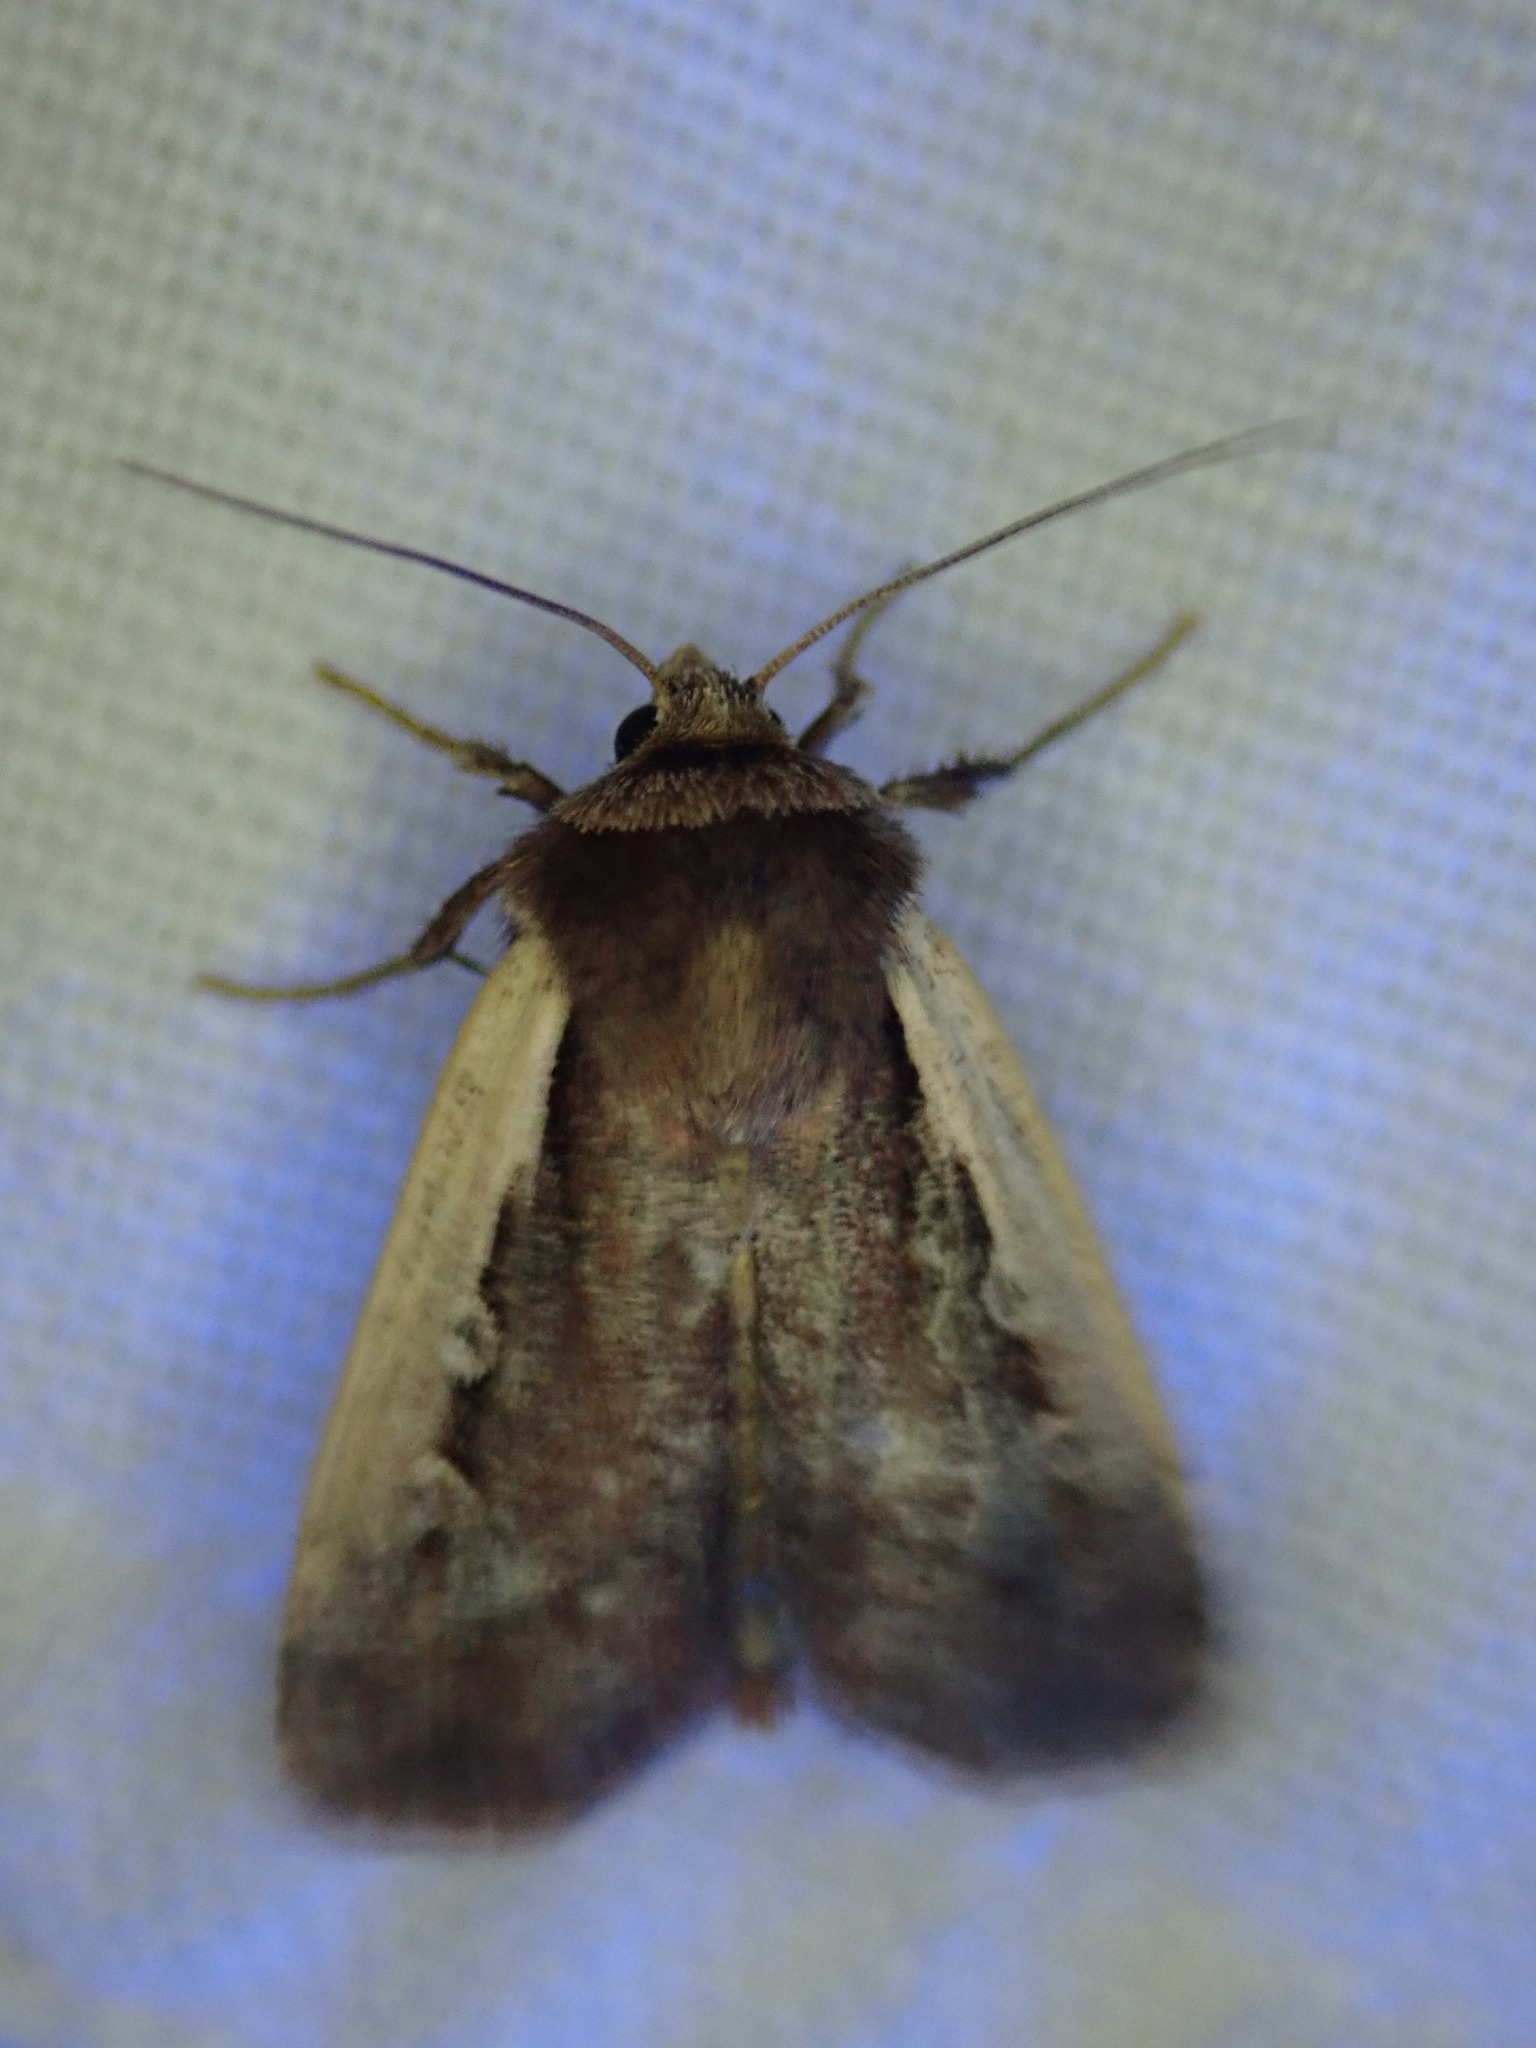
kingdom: Animalia
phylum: Arthropoda
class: Insecta
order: Lepidoptera
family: Noctuidae
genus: Ochropleura
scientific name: Ochropleura plecta
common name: Flame shoulder
